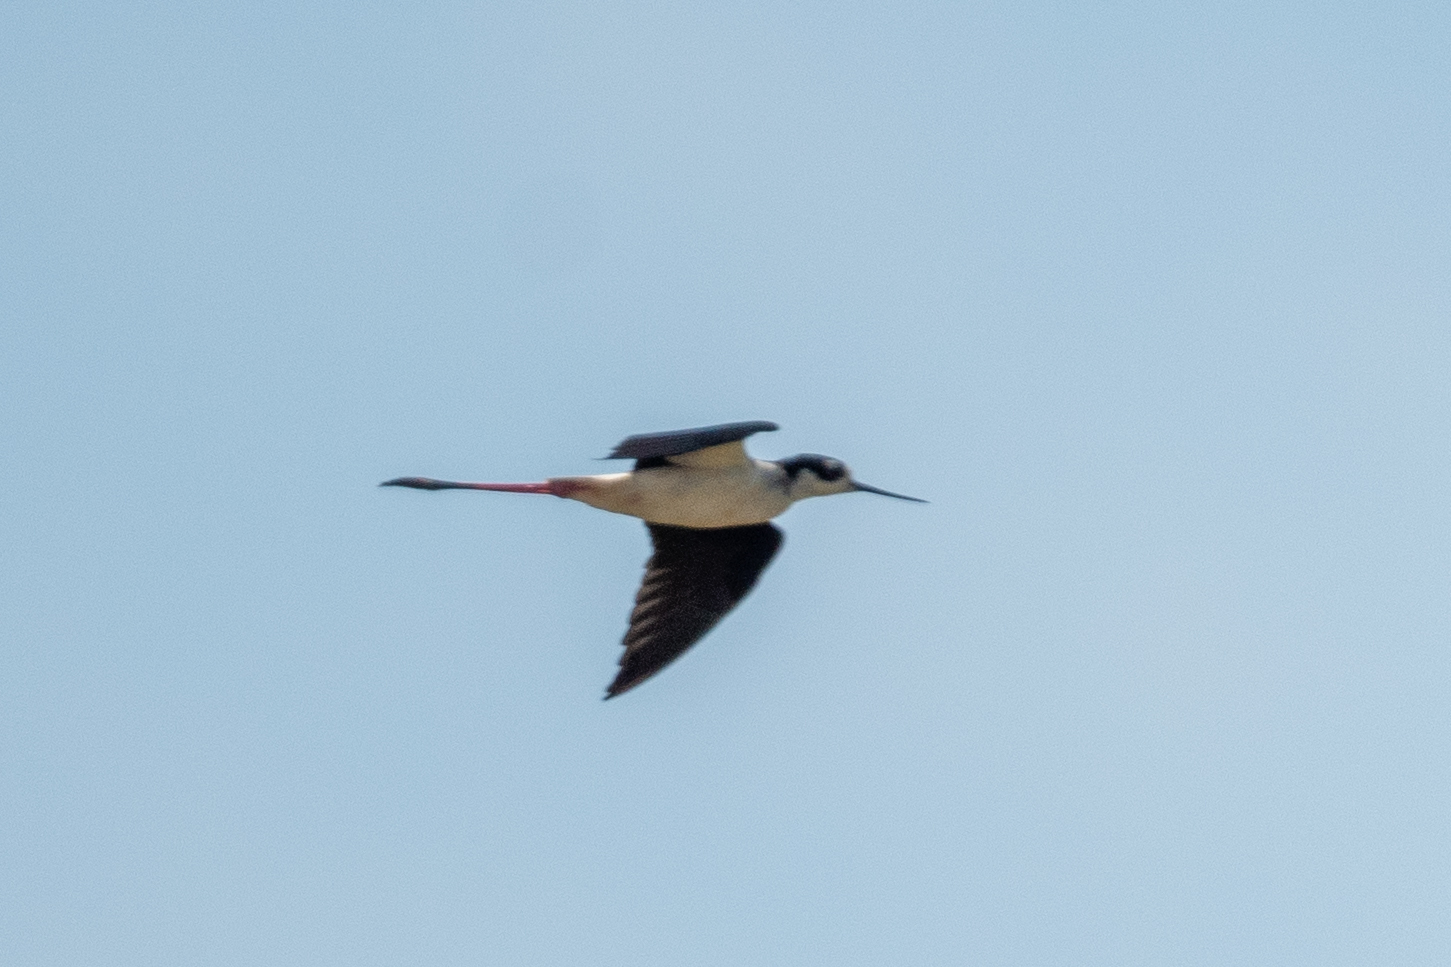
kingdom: Animalia
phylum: Chordata
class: Aves
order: Charadriiformes
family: Recurvirostridae
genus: Himantopus
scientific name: Himantopus mexicanus
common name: Black-necked stilt
